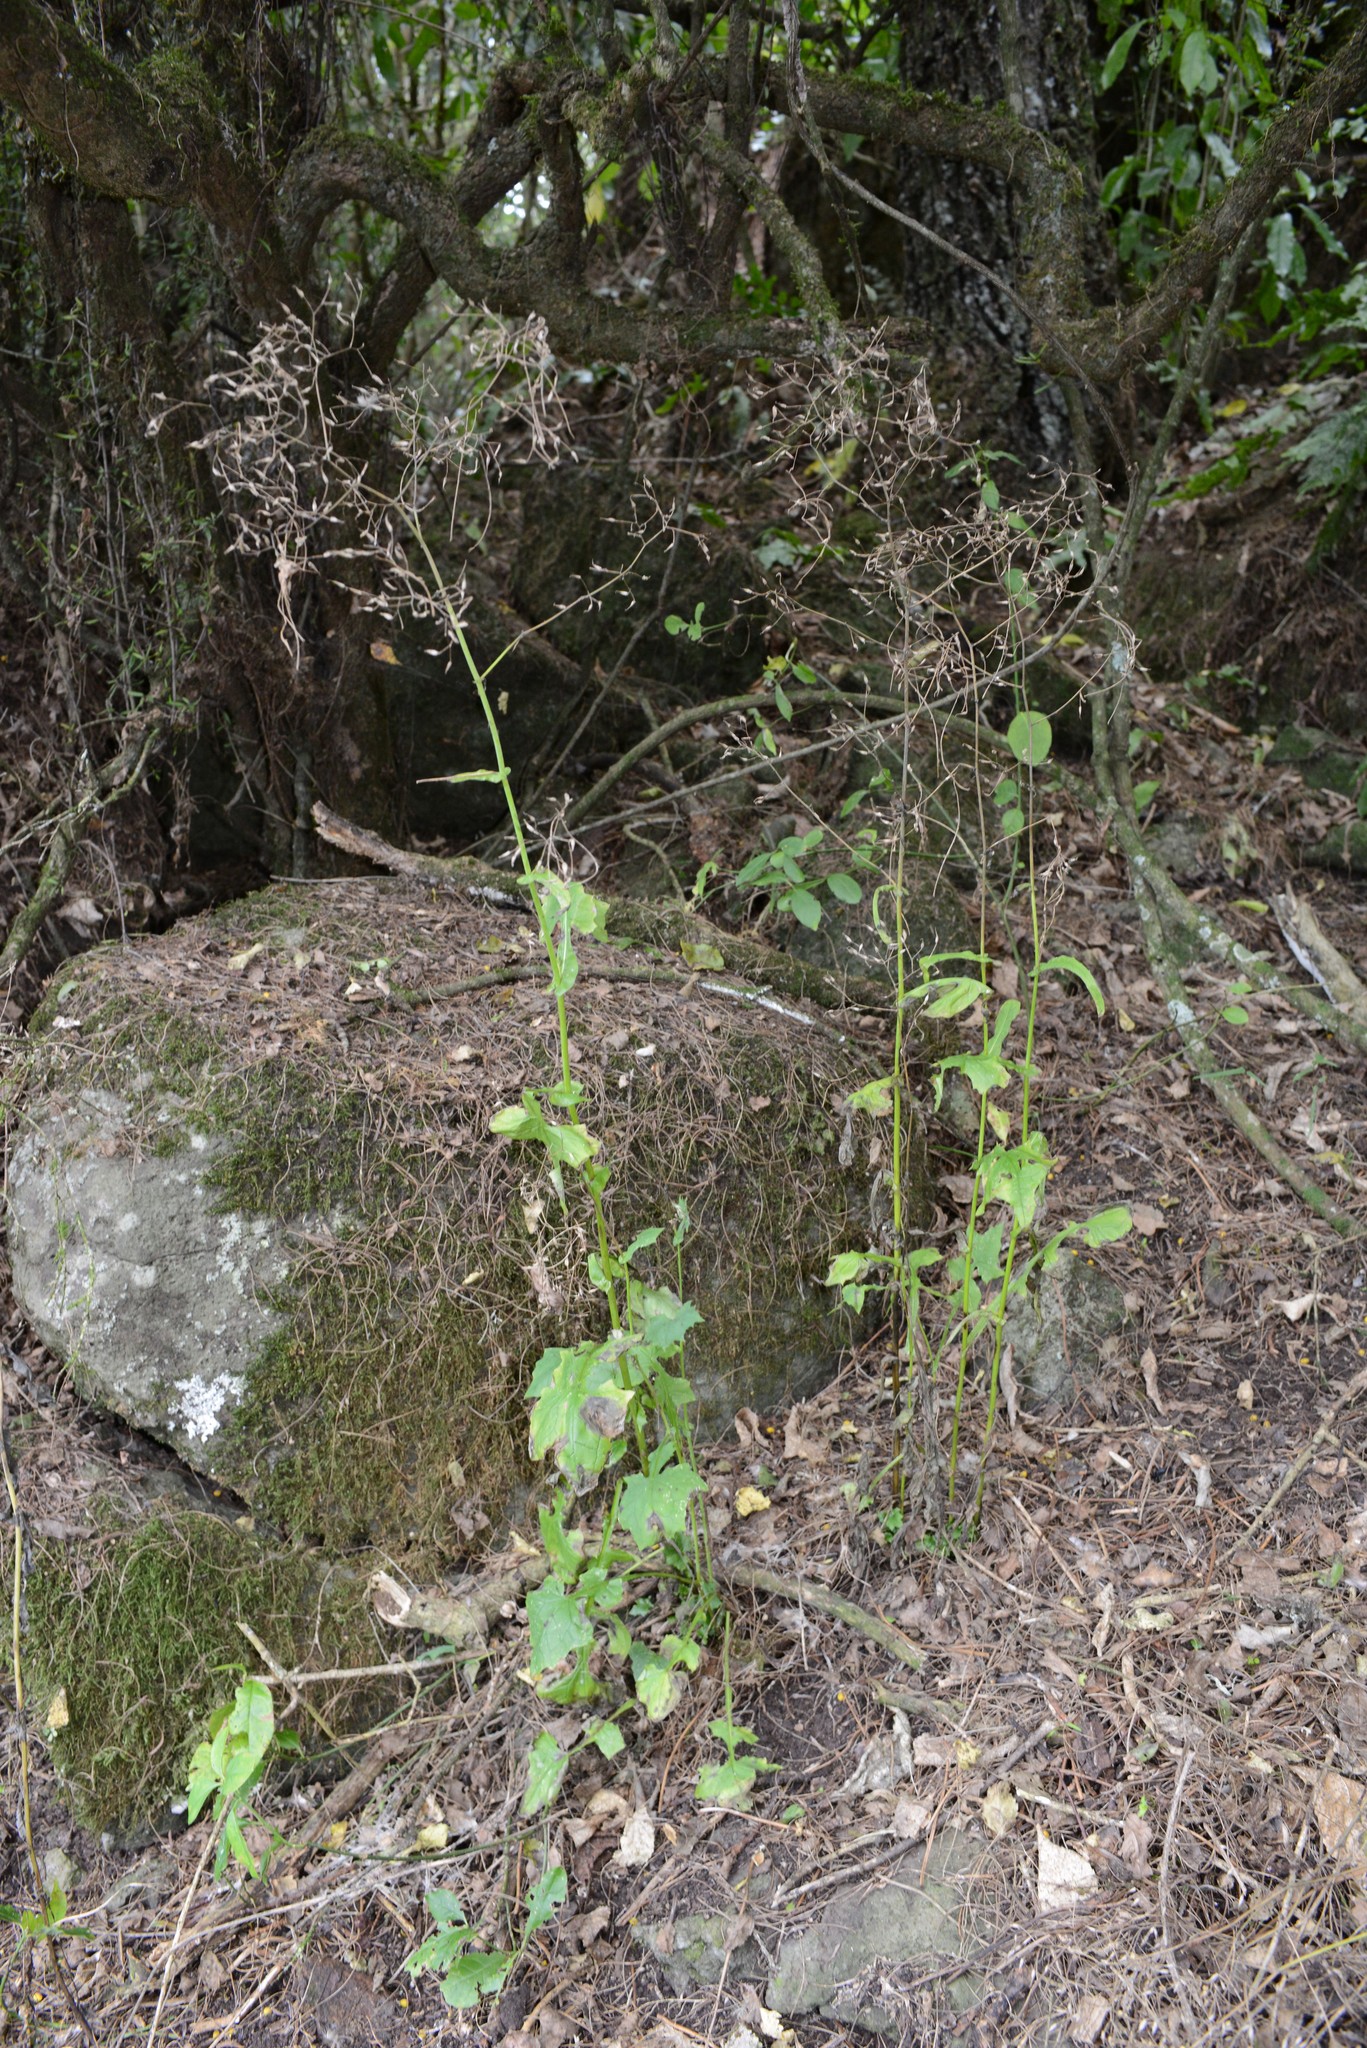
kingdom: Plantae
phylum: Tracheophyta
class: Magnoliopsida
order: Asterales
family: Asteraceae
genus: Mycelis
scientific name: Mycelis muralis
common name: Wall lettuce
